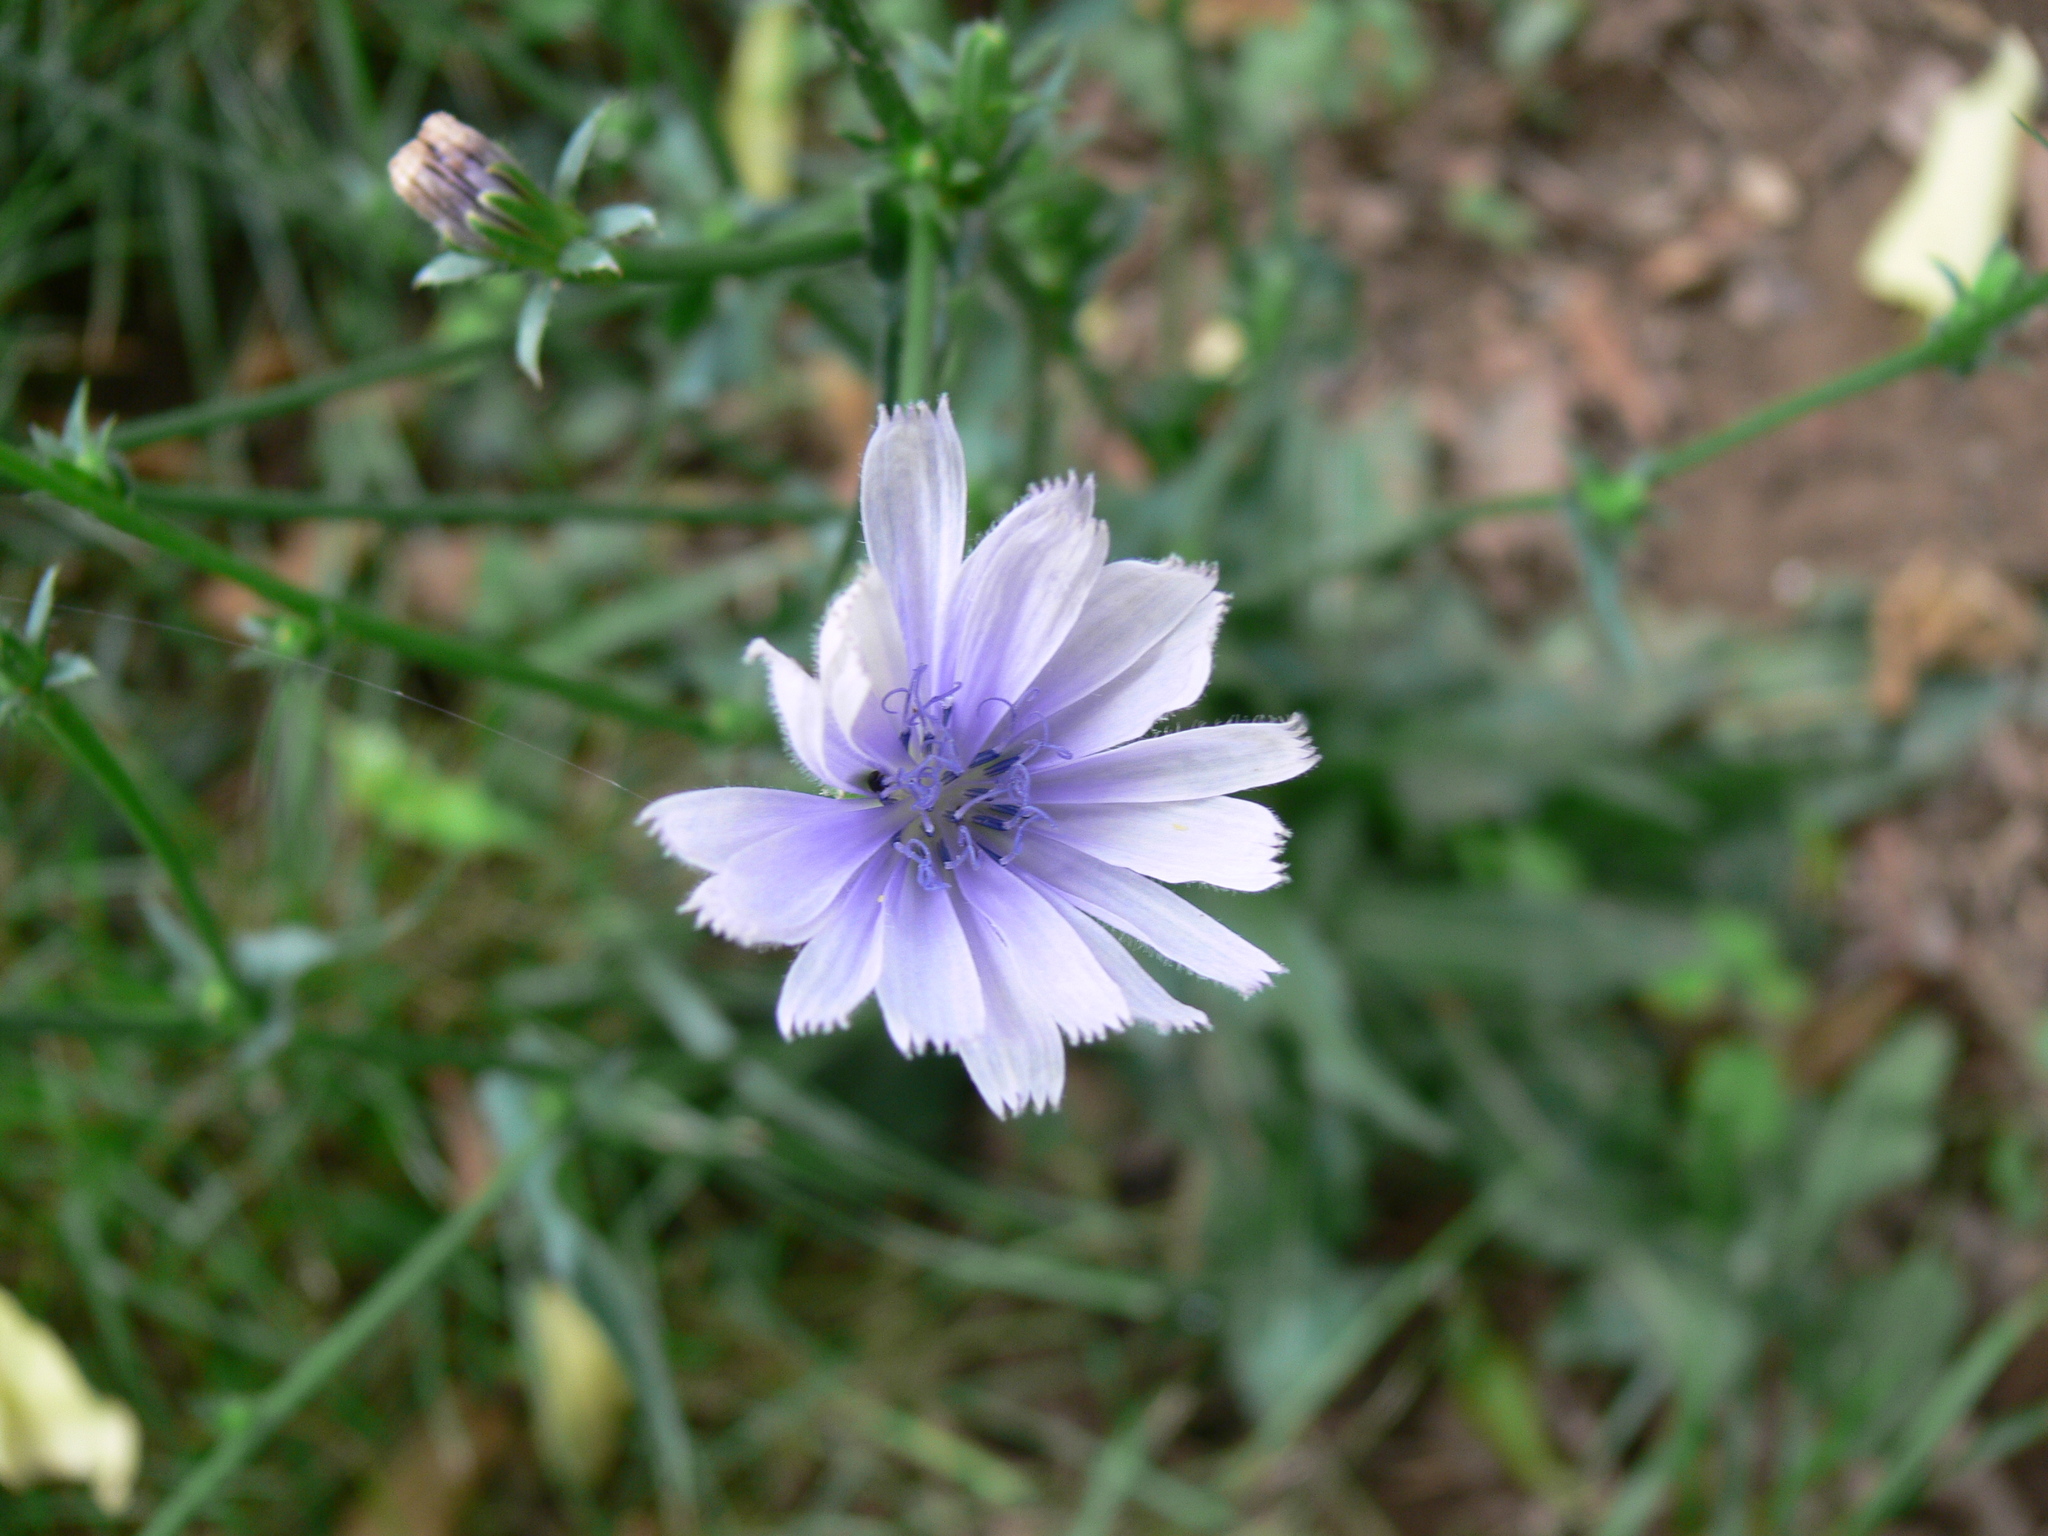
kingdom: Plantae
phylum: Tracheophyta
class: Magnoliopsida
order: Asterales
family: Asteraceae
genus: Cichorium
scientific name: Cichorium intybus
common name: Chicory
